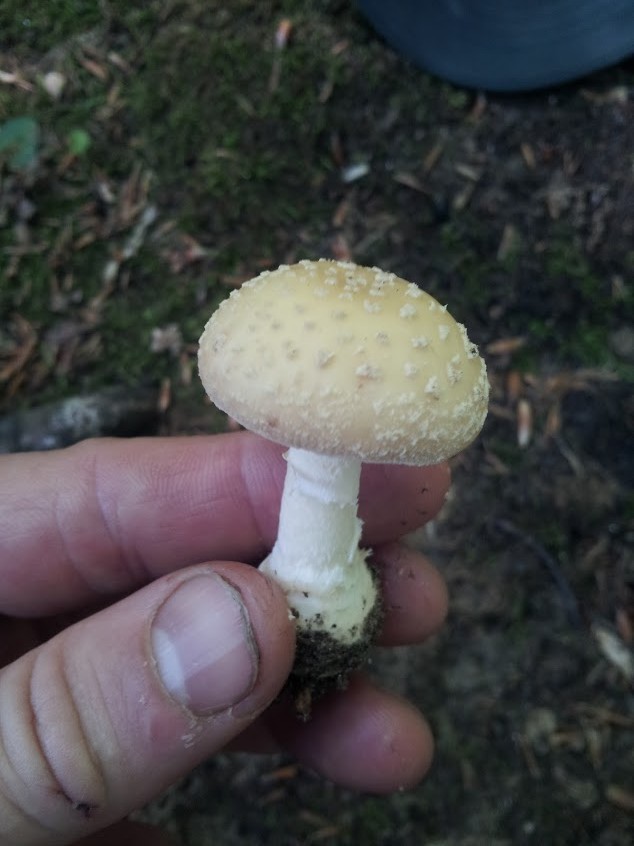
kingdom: Fungi
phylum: Basidiomycota
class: Agaricomycetes
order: Agaricales
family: Amanitaceae
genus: Amanita
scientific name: Amanita crenulata
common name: Poison champagne amanita
